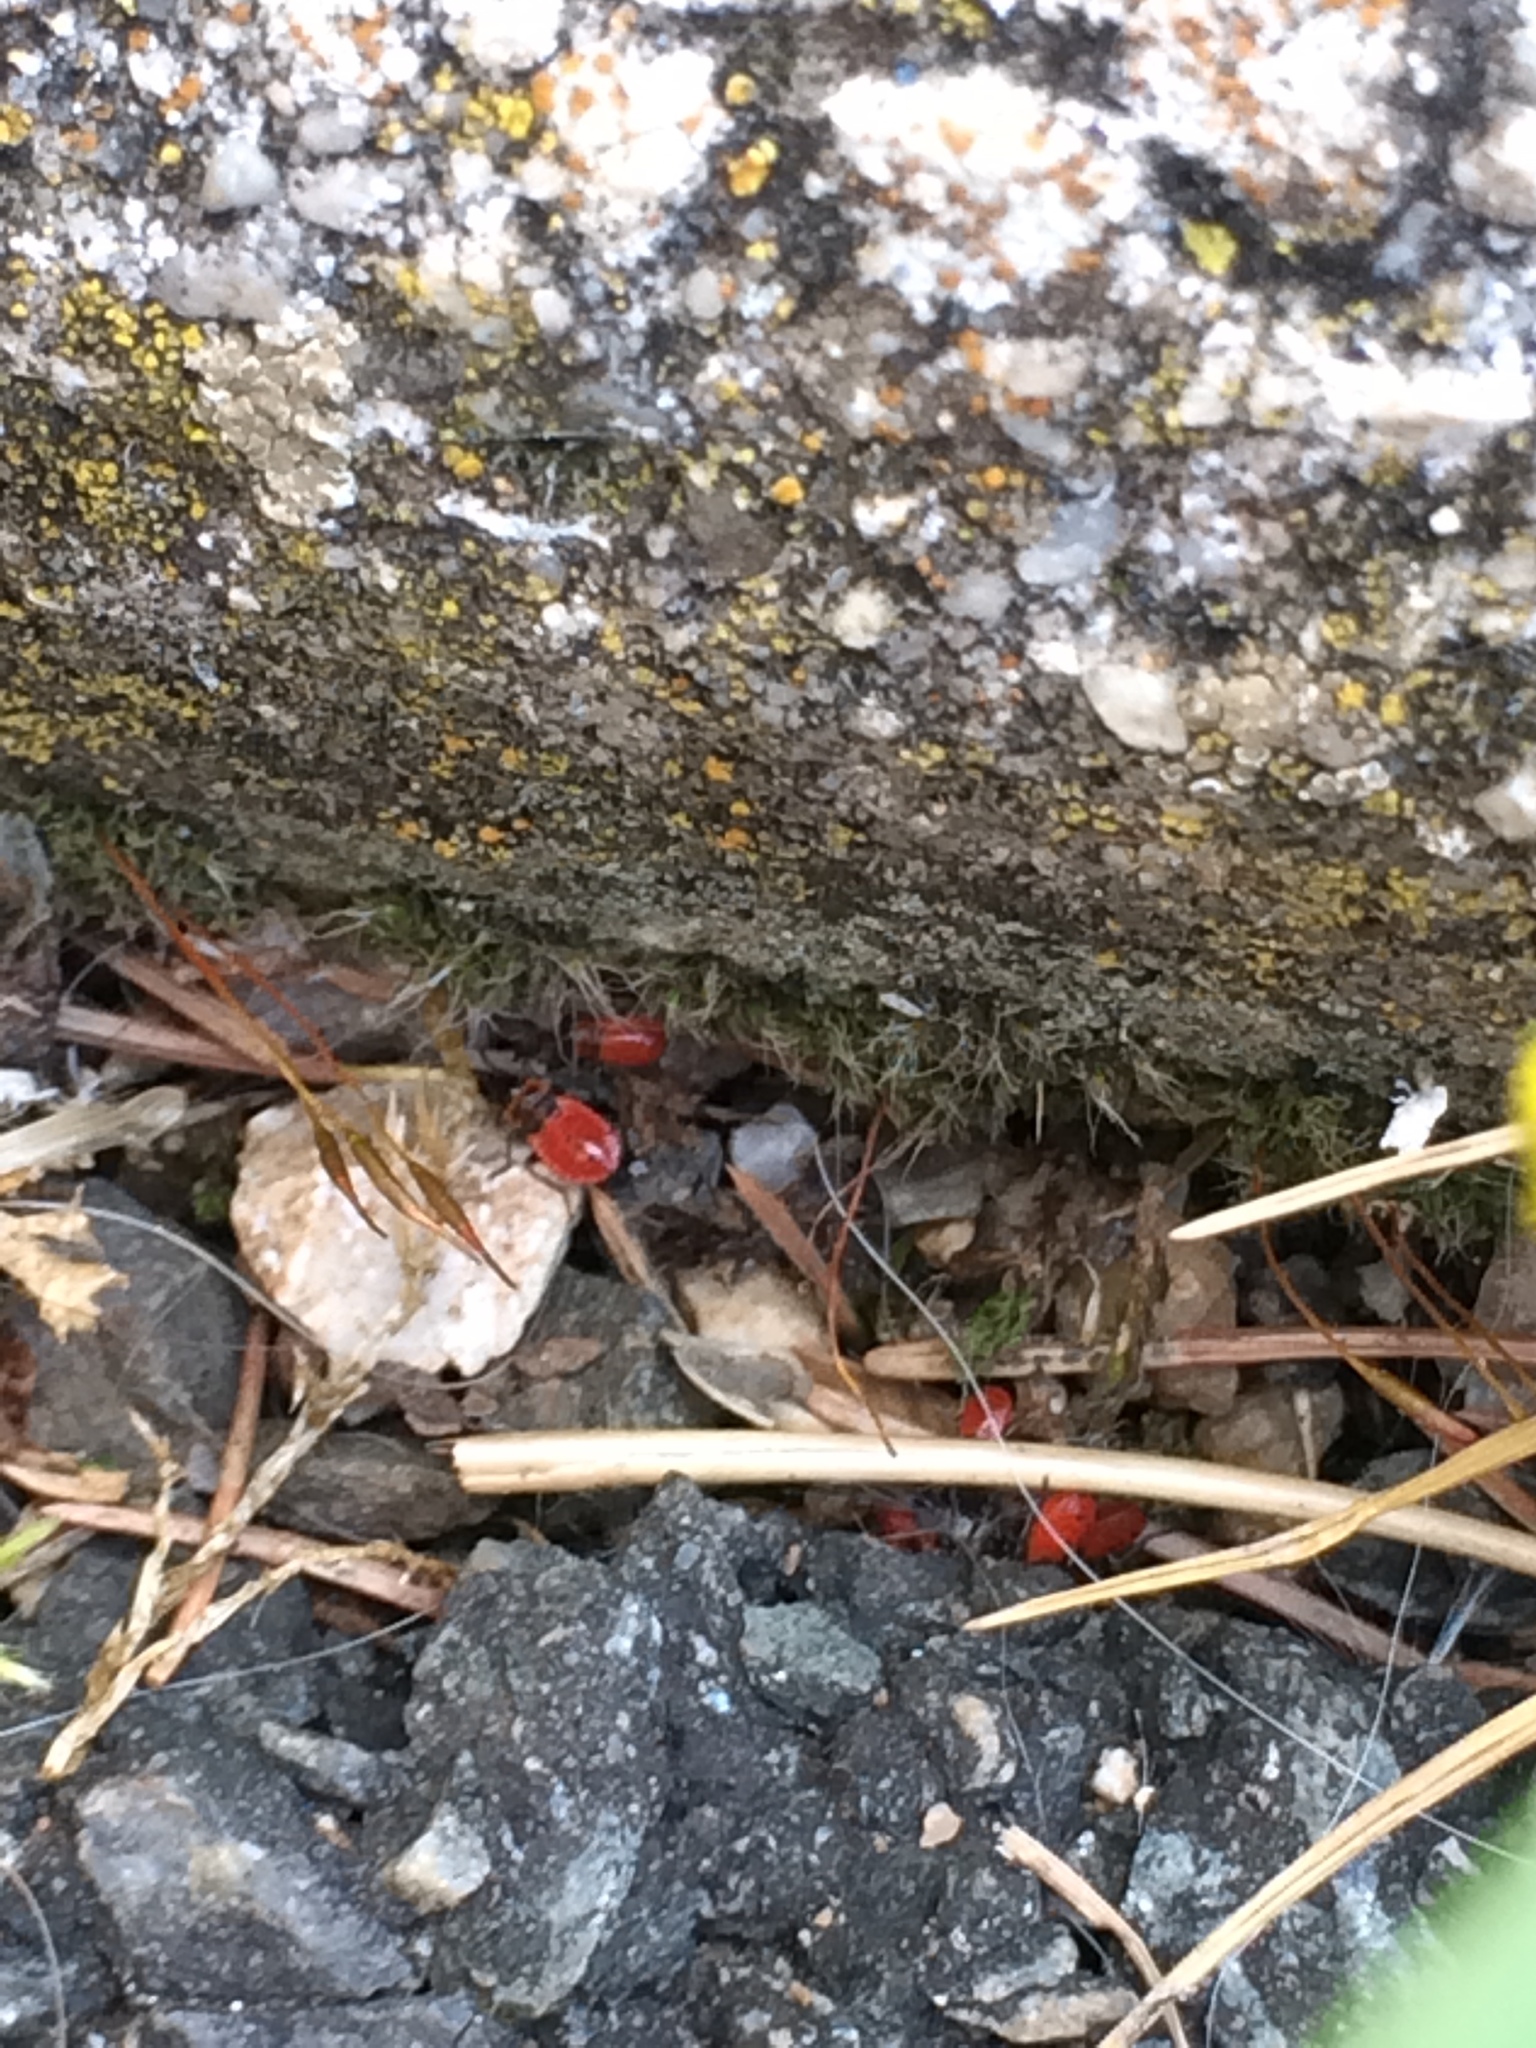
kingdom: Animalia
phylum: Arthropoda
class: Insecta
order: Hemiptera
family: Pyrrhocoridae
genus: Pyrrhocoris
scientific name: Pyrrhocoris apterus
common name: Firebug
